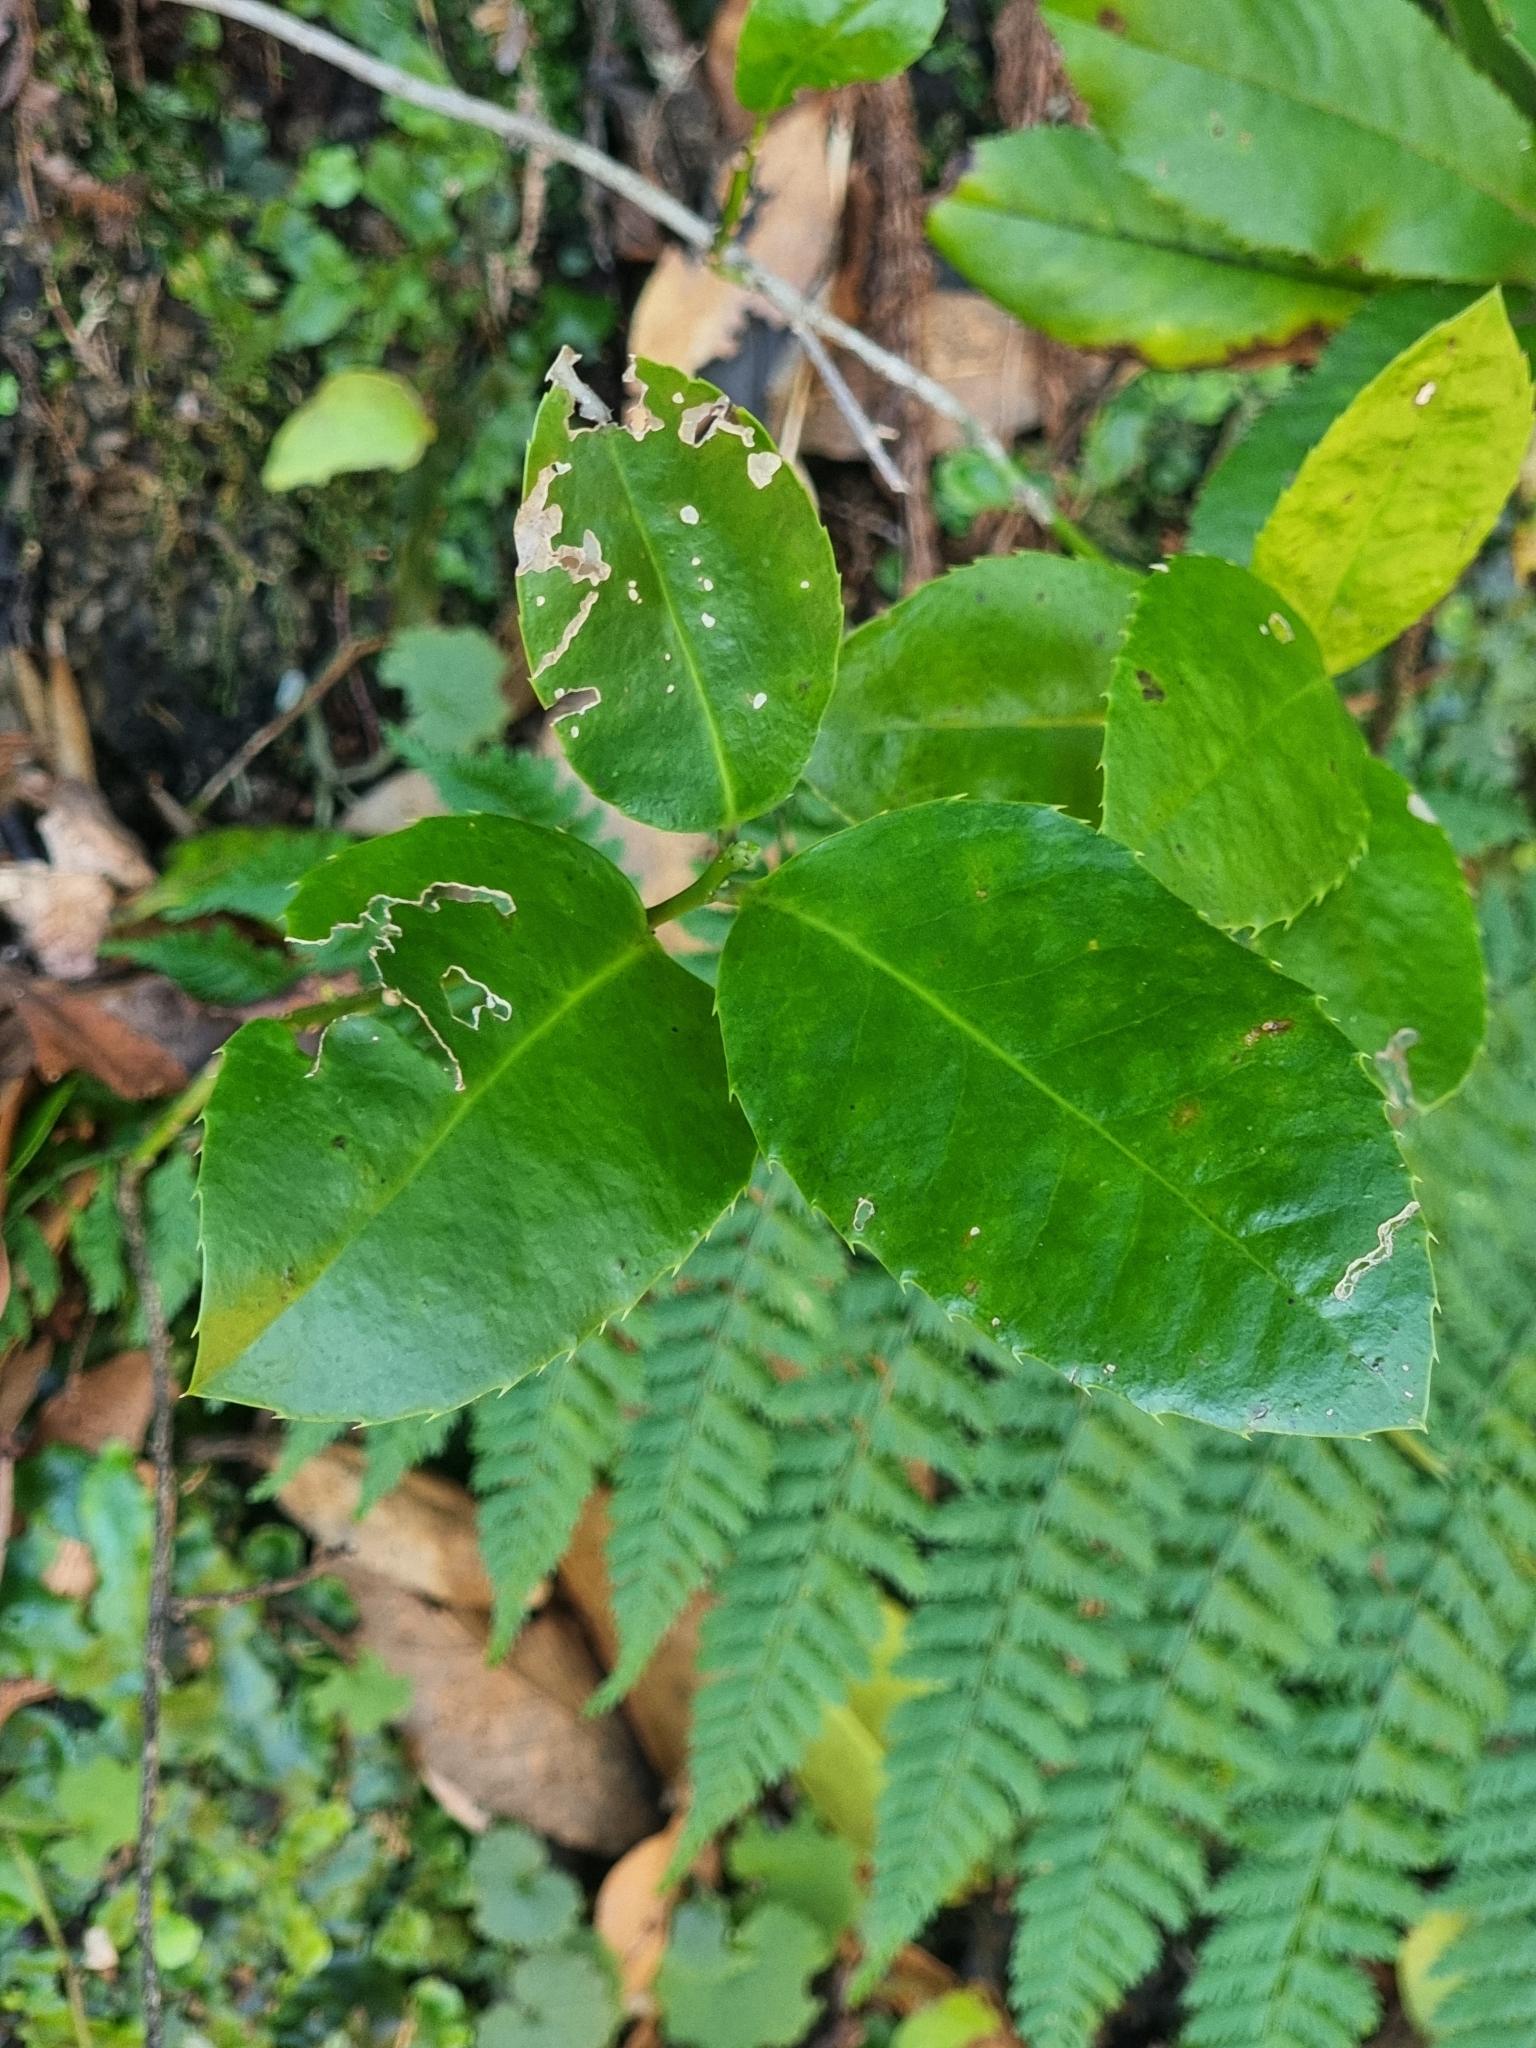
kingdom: Plantae
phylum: Tracheophyta
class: Magnoliopsida
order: Aquifoliales
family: Aquifoliaceae
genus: Ilex
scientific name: Ilex perado
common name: Madeira holly
